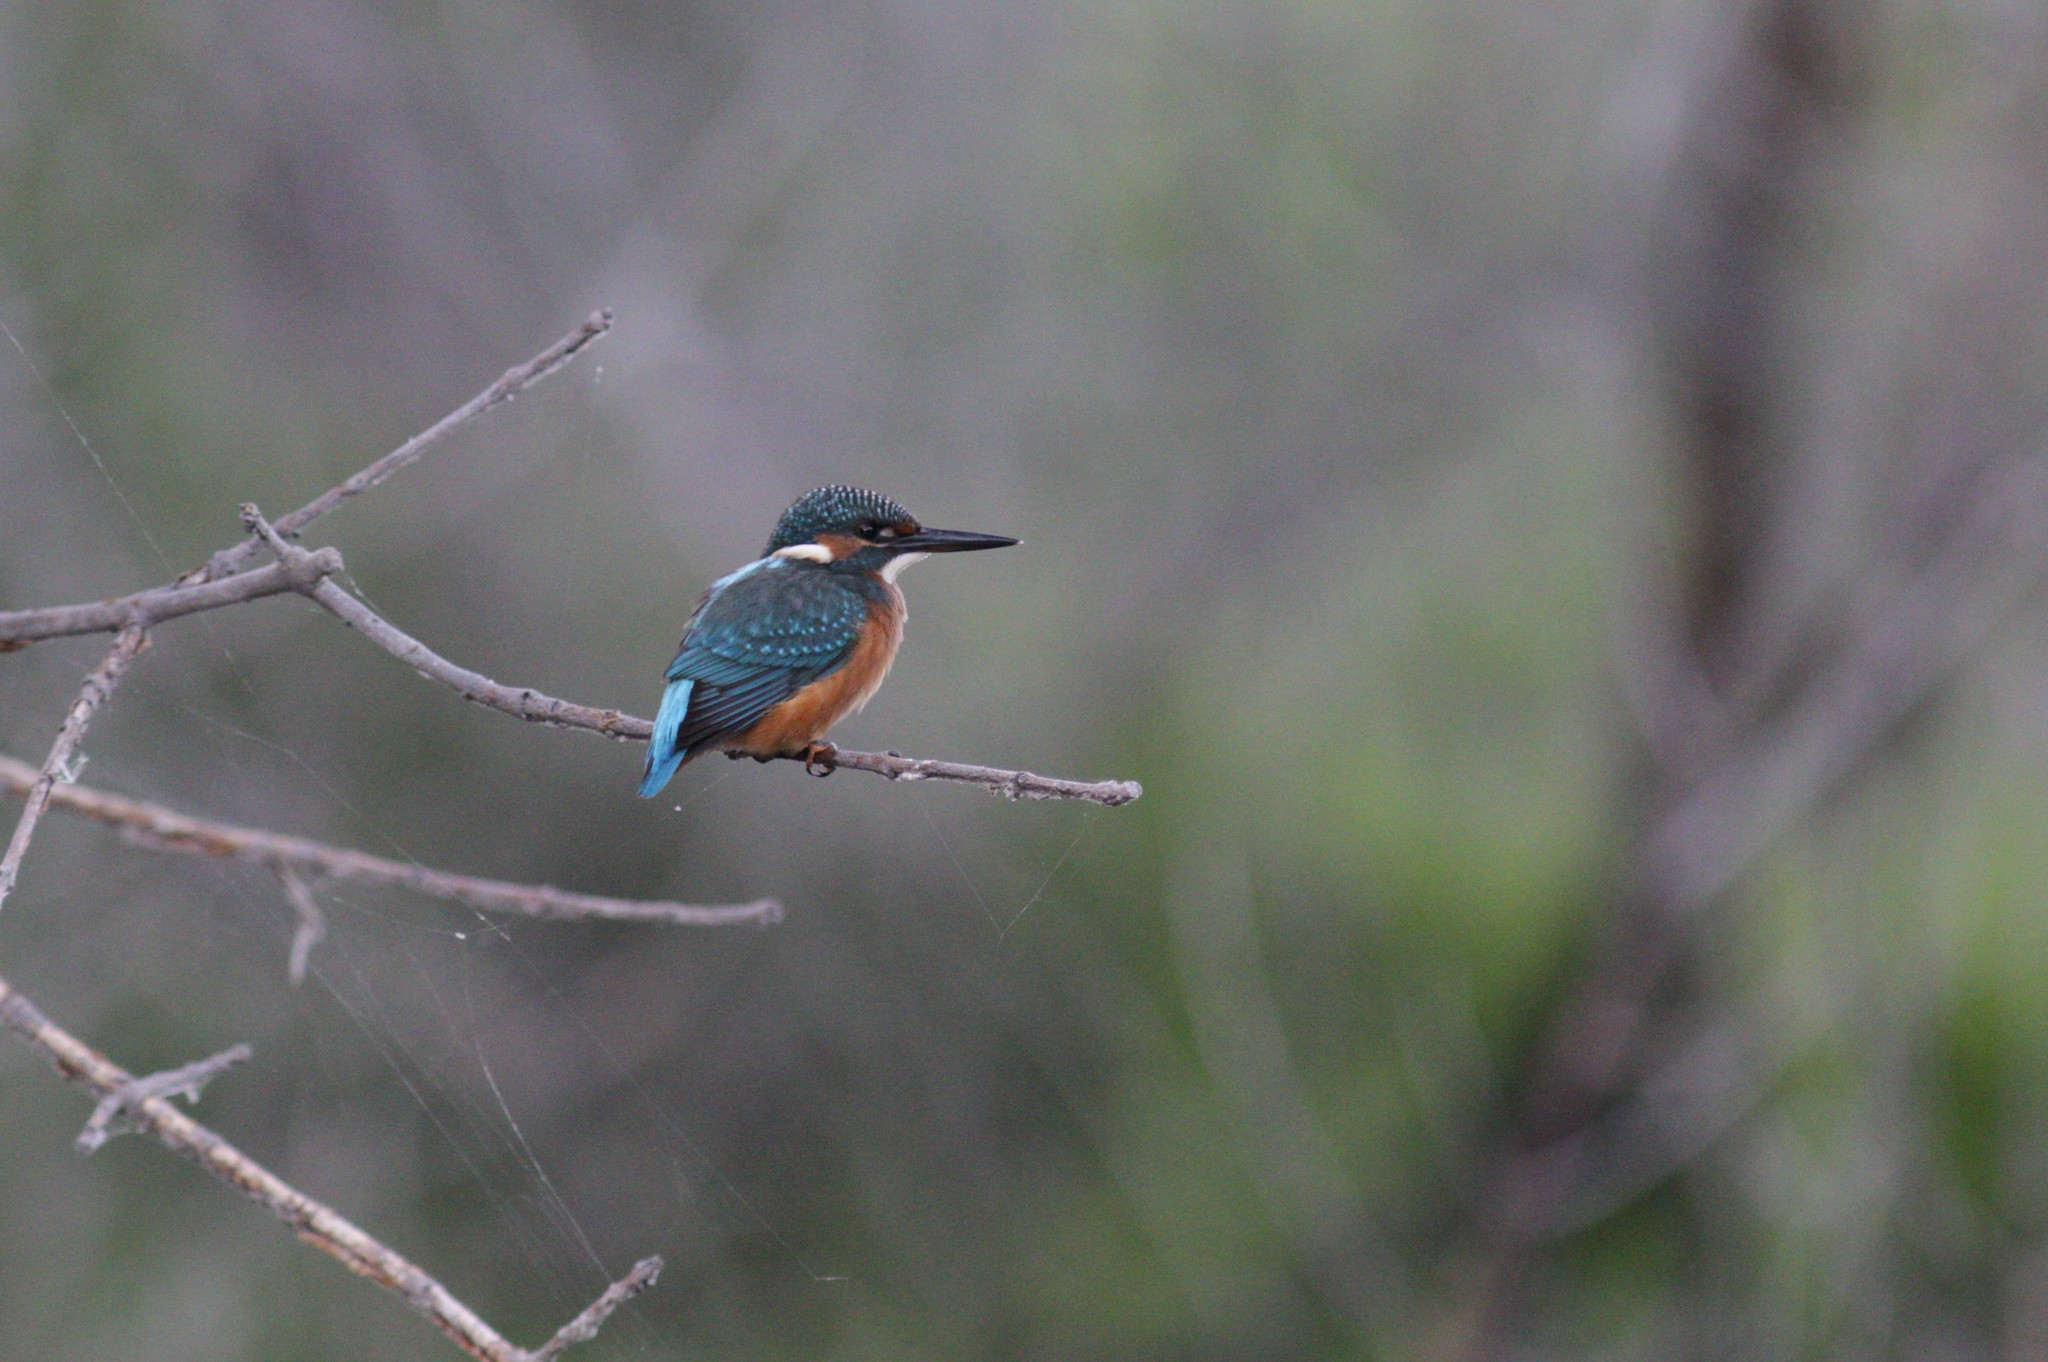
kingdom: Animalia
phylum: Chordata
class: Aves
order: Coraciiformes
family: Alcedinidae
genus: Alcedo
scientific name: Alcedo atthis
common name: Common kingfisher
